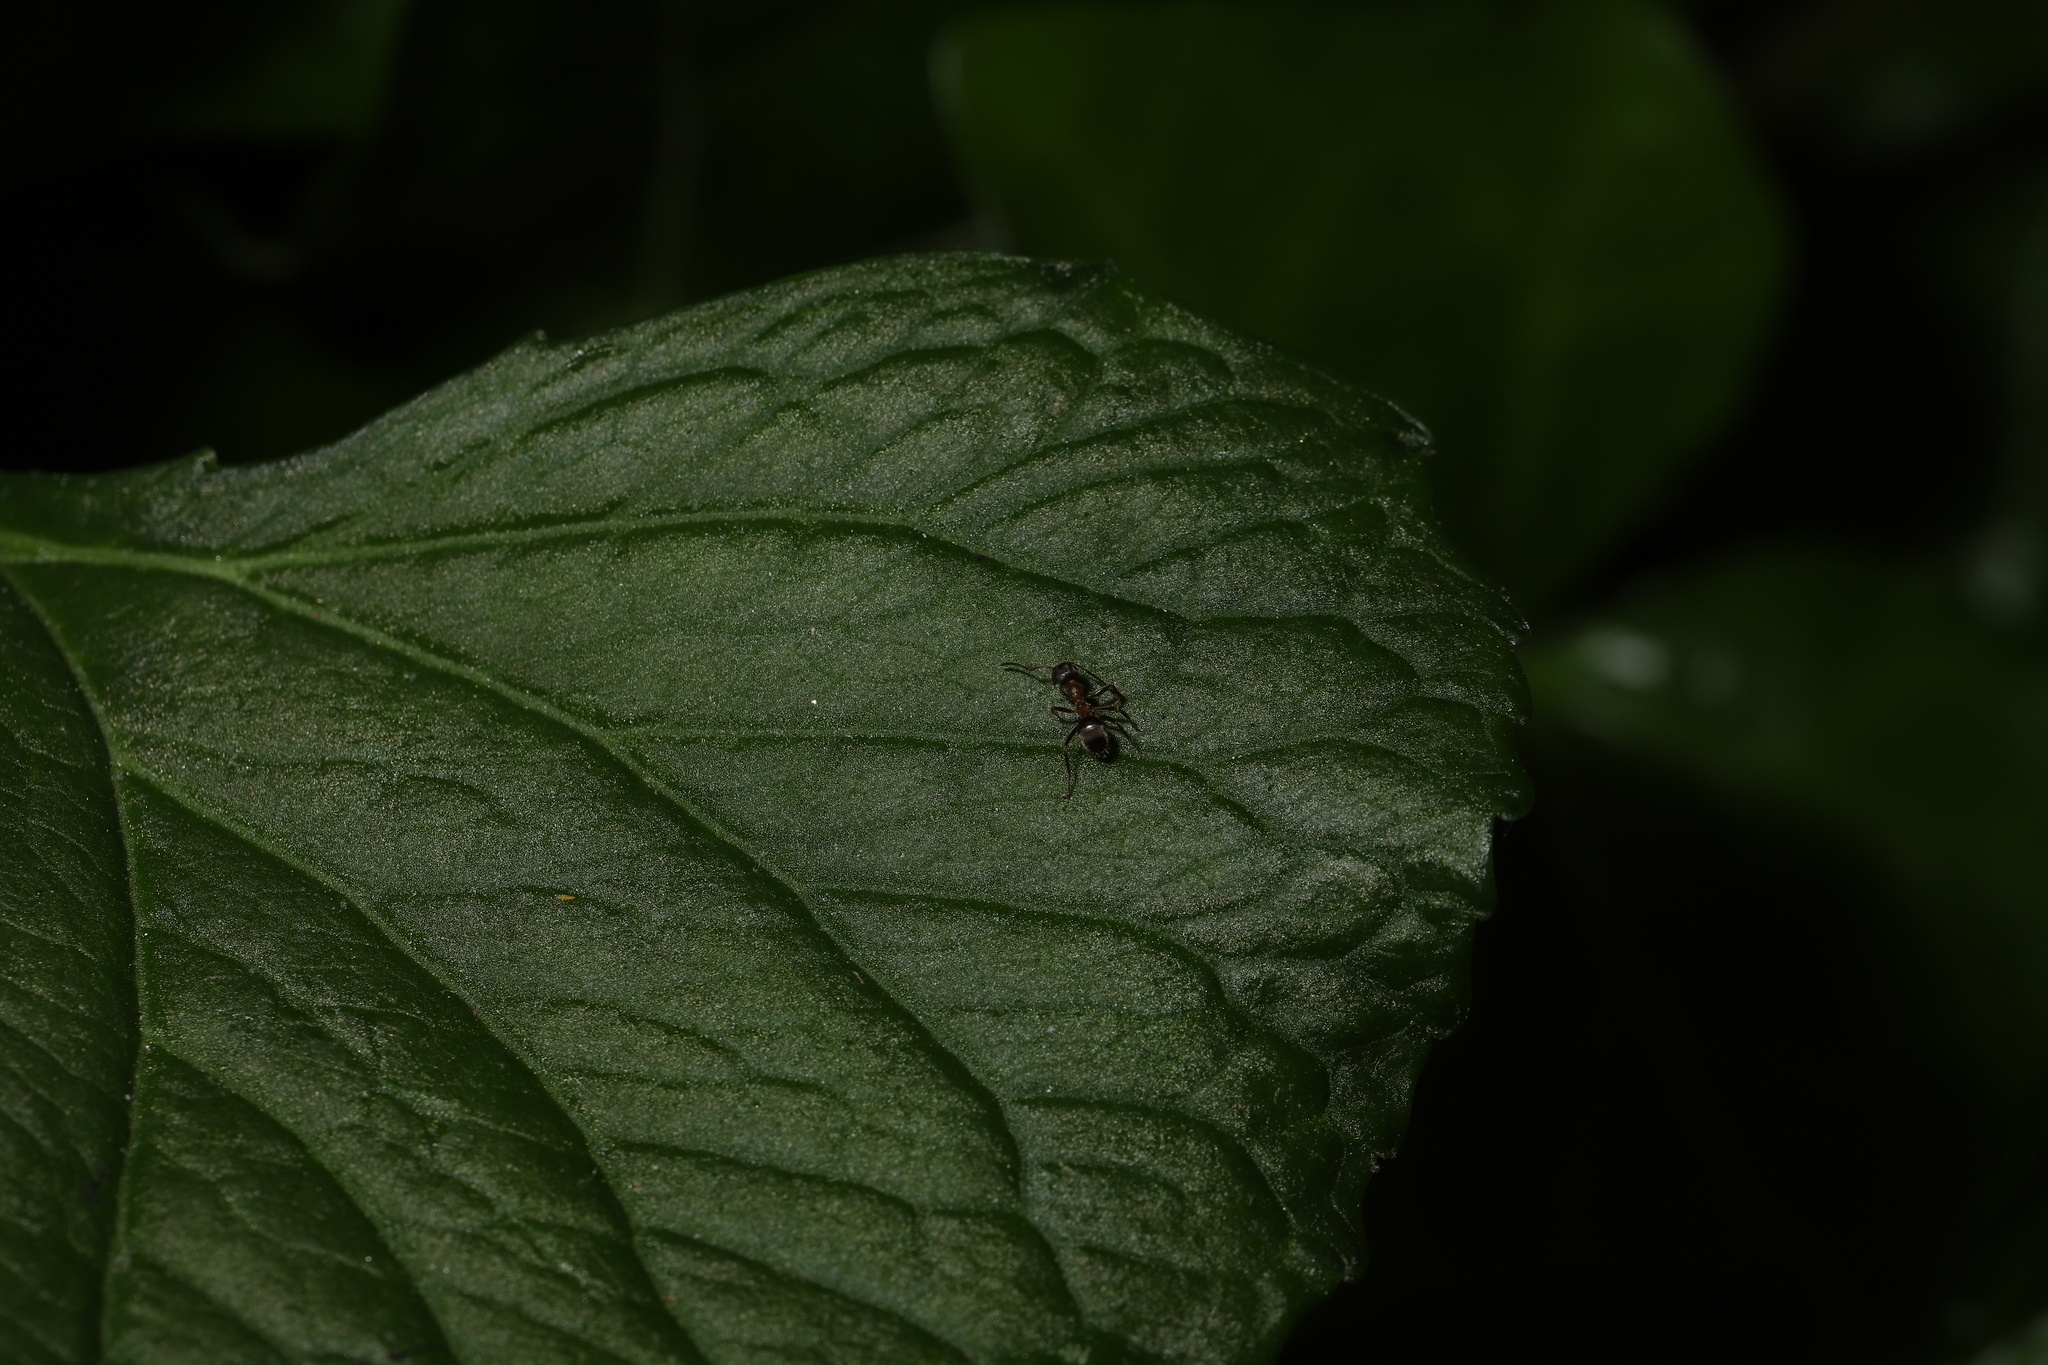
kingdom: Animalia
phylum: Arthropoda
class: Insecta
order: Hymenoptera
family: Formicidae
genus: Lasius
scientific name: Lasius emarginatus
